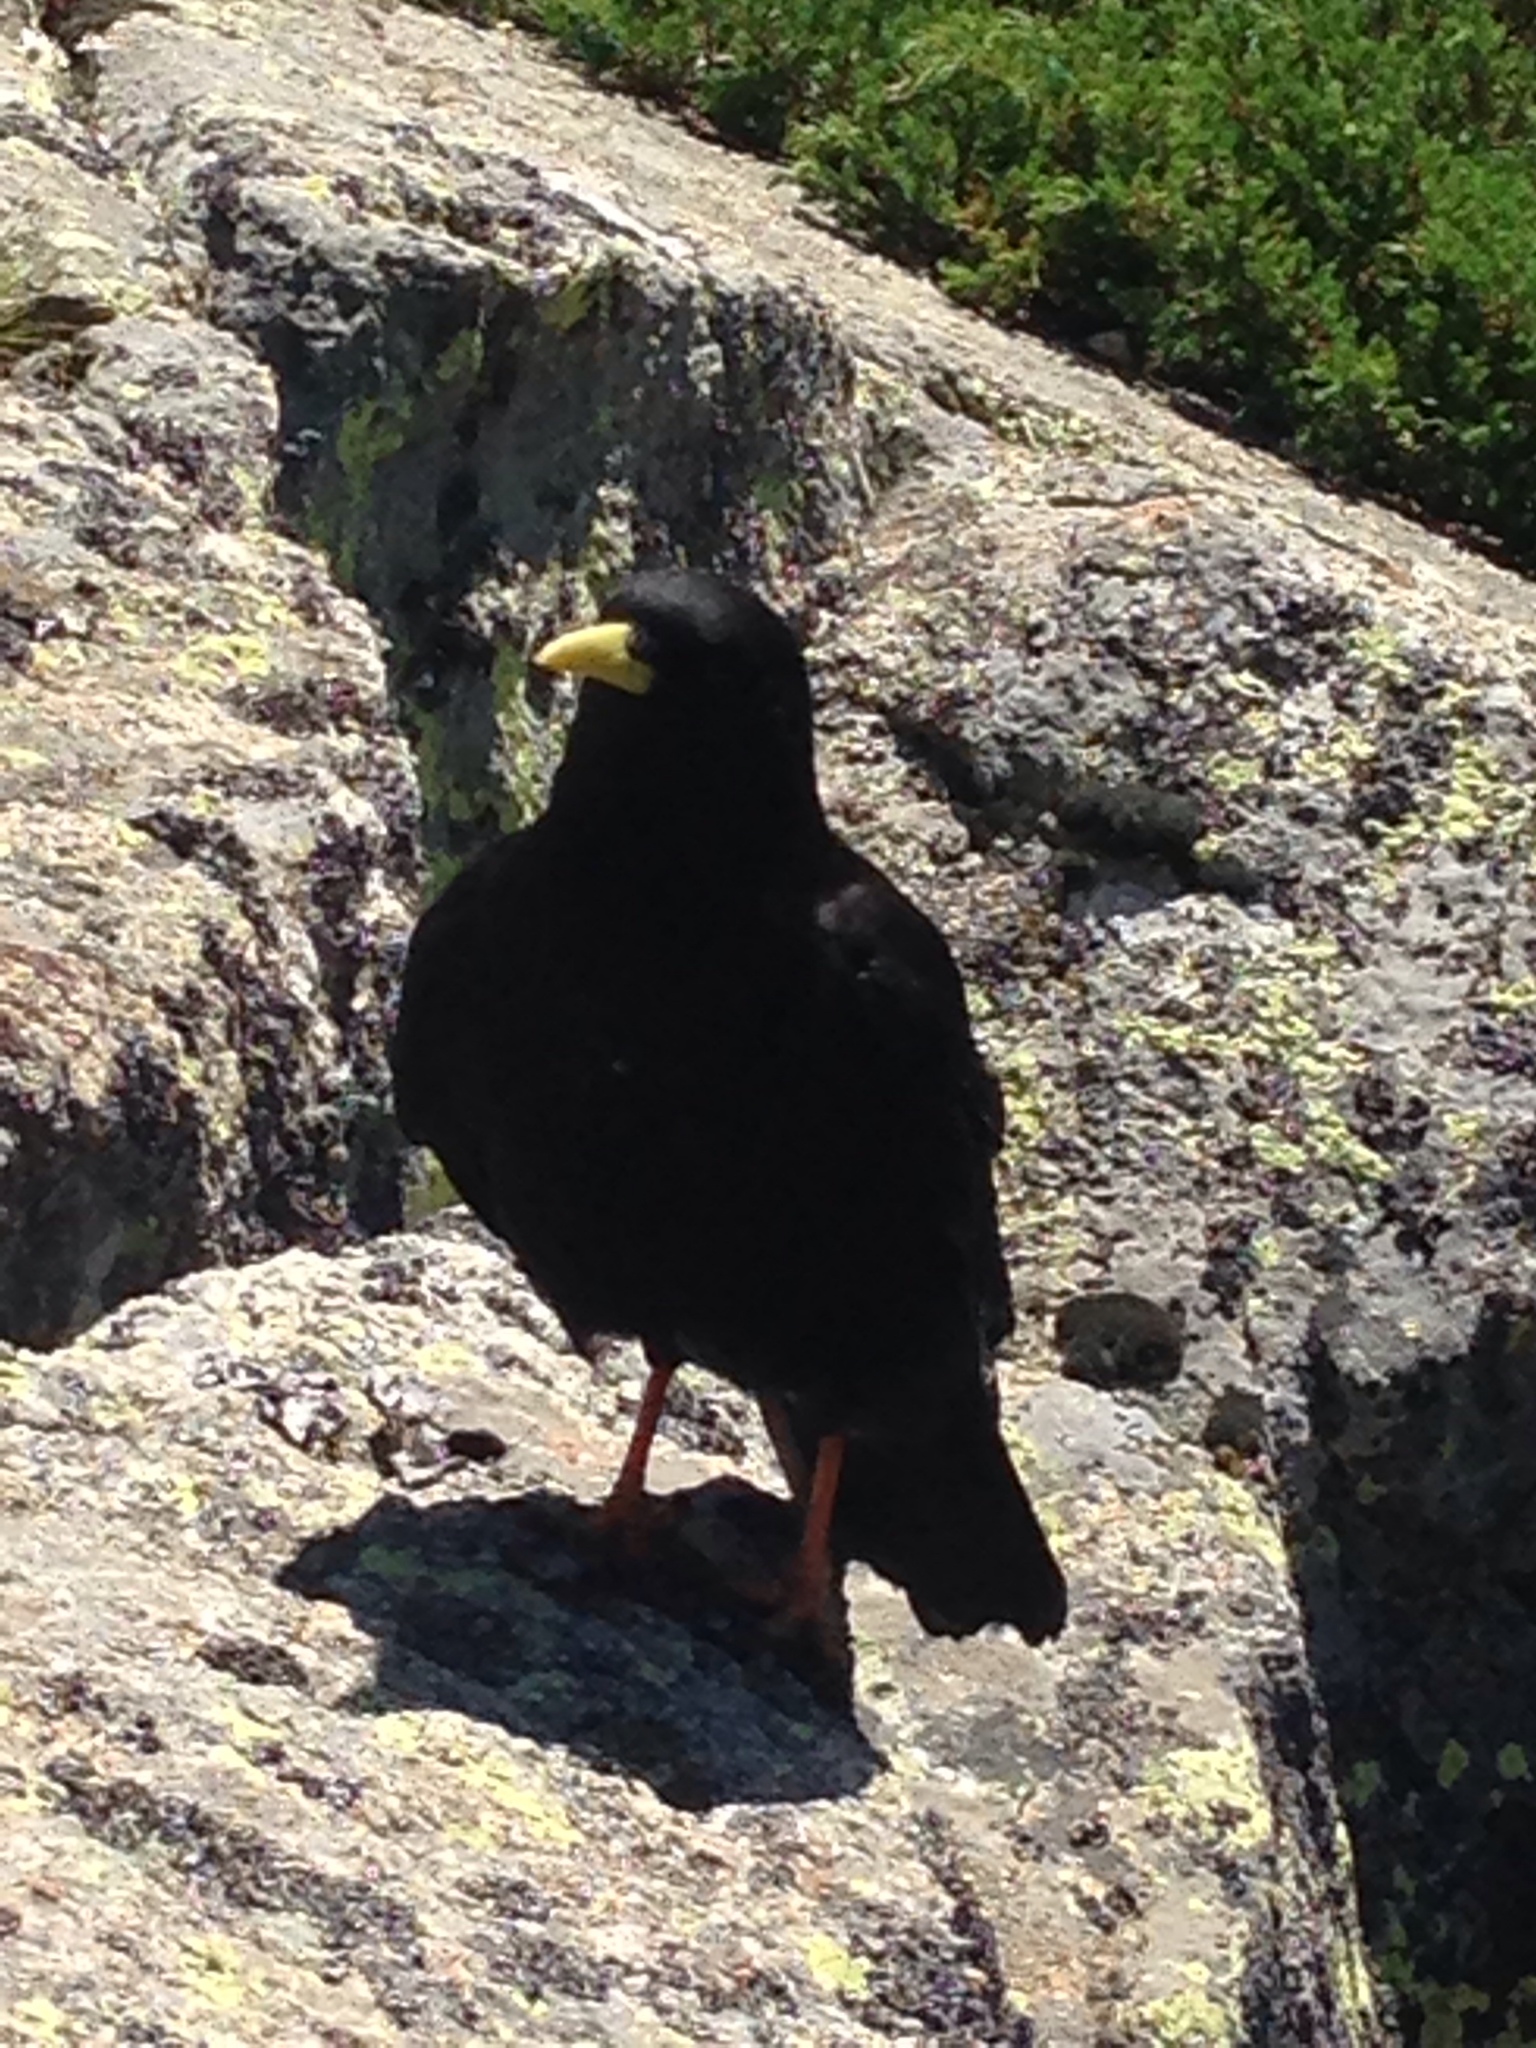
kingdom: Animalia
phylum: Chordata
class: Aves
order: Passeriformes
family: Corvidae
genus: Pyrrhocorax
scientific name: Pyrrhocorax graculus
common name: Alpine chough
